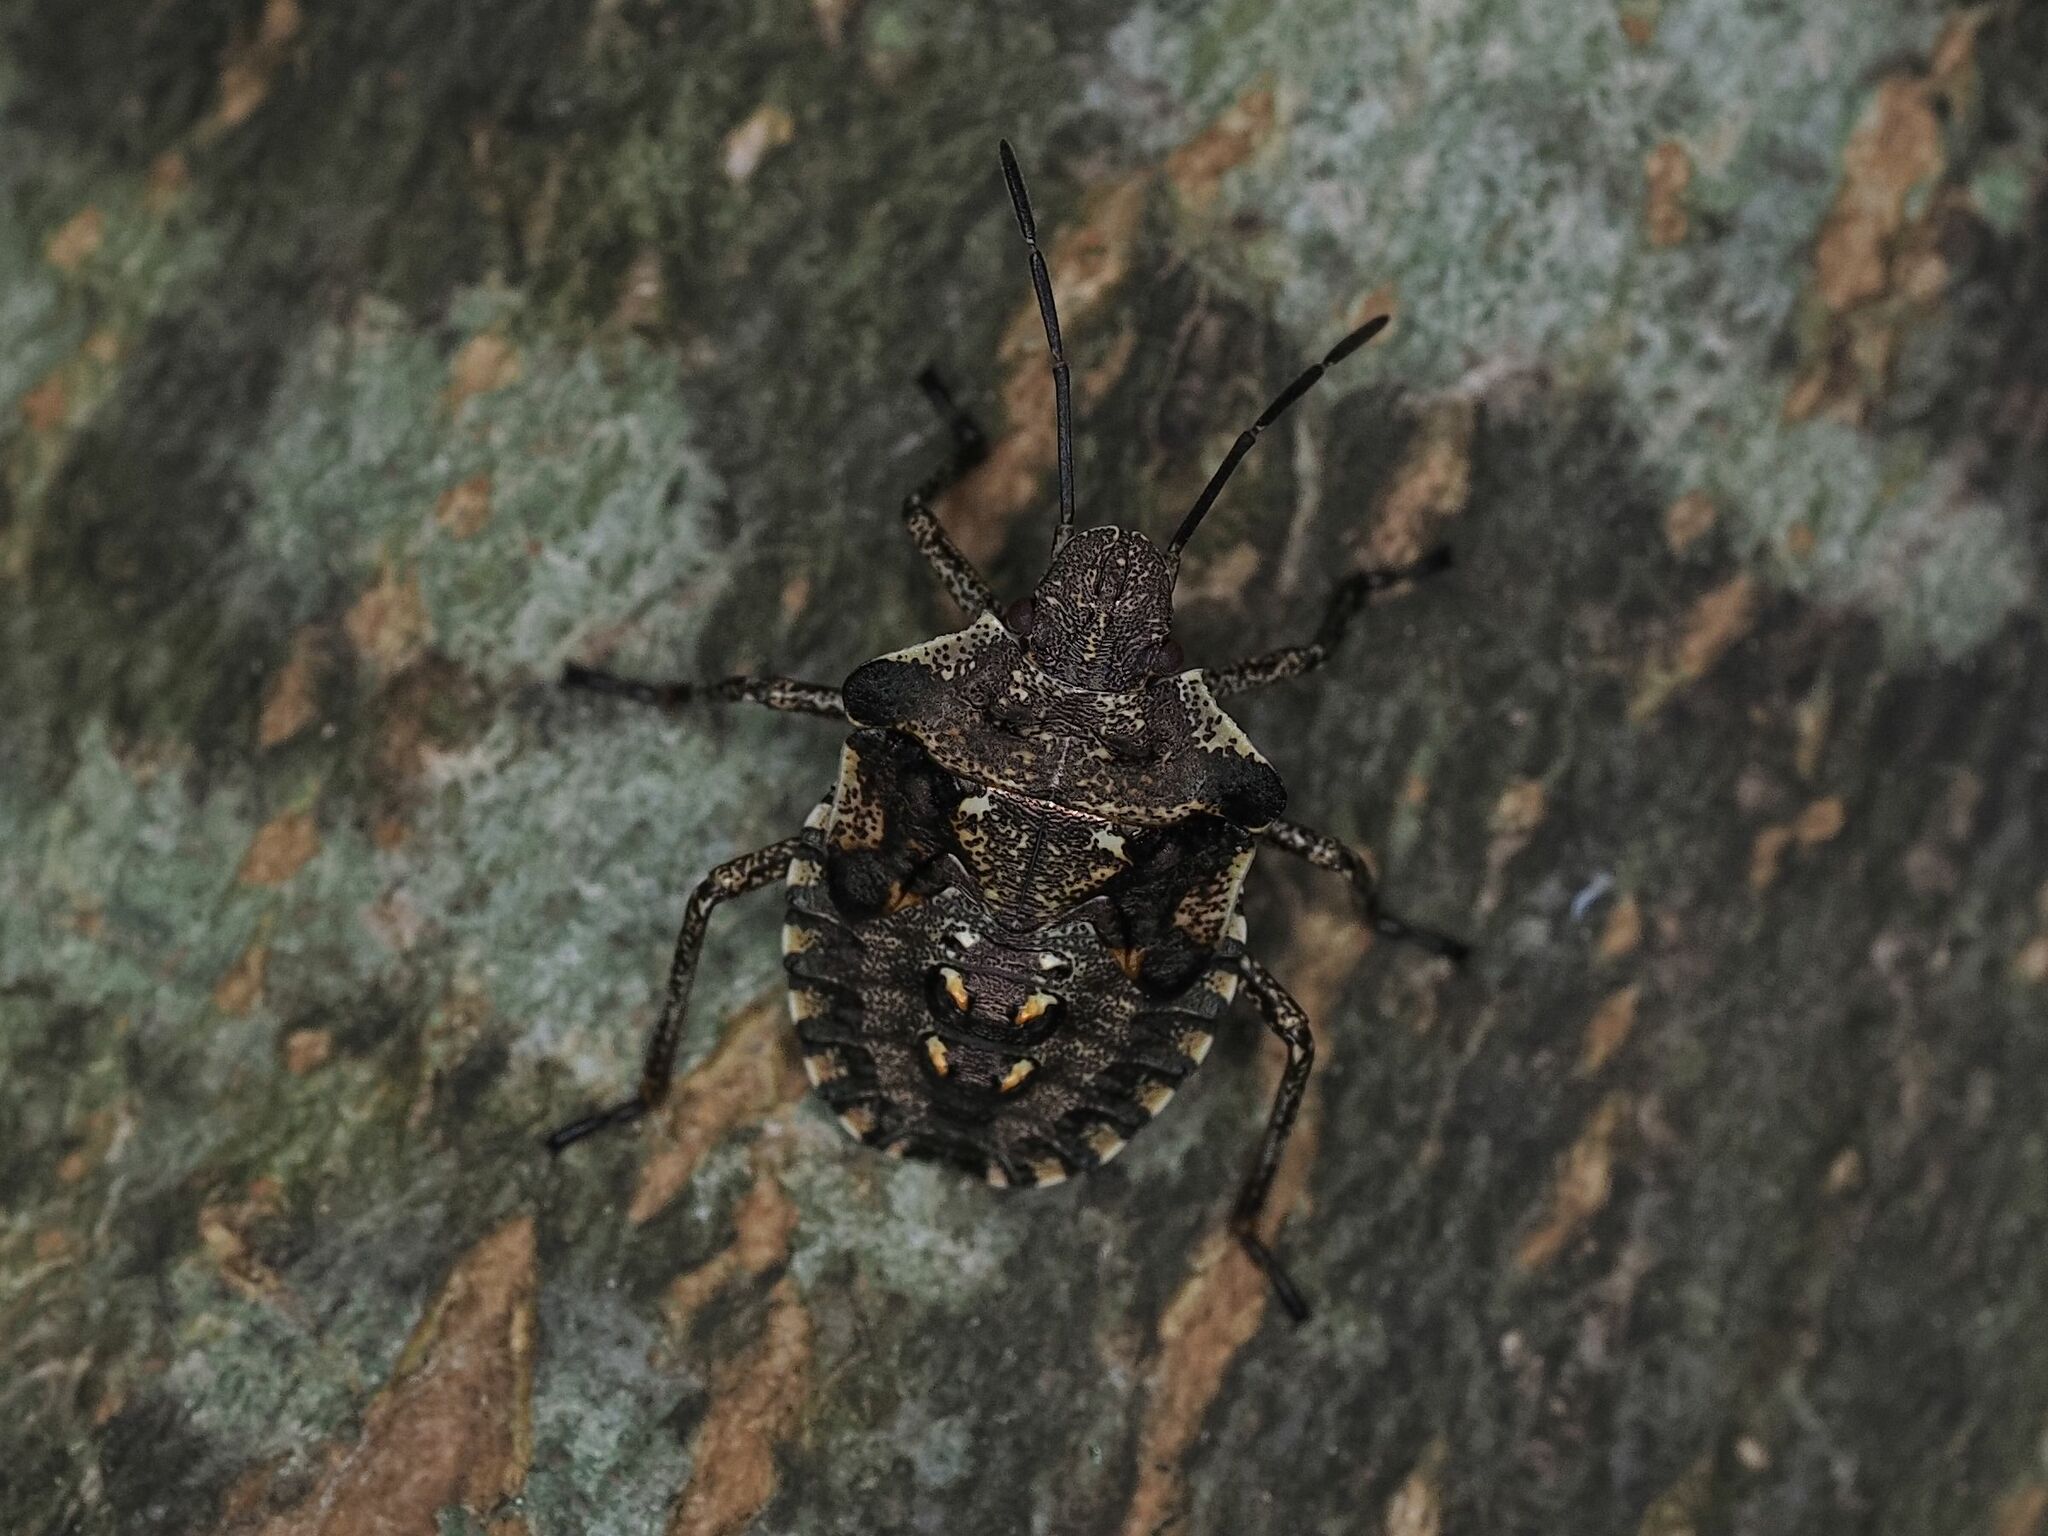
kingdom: Animalia
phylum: Arthropoda
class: Insecta
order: Hemiptera
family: Pentatomidae
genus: Pentatoma
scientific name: Pentatoma rufipes
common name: Forest bug
